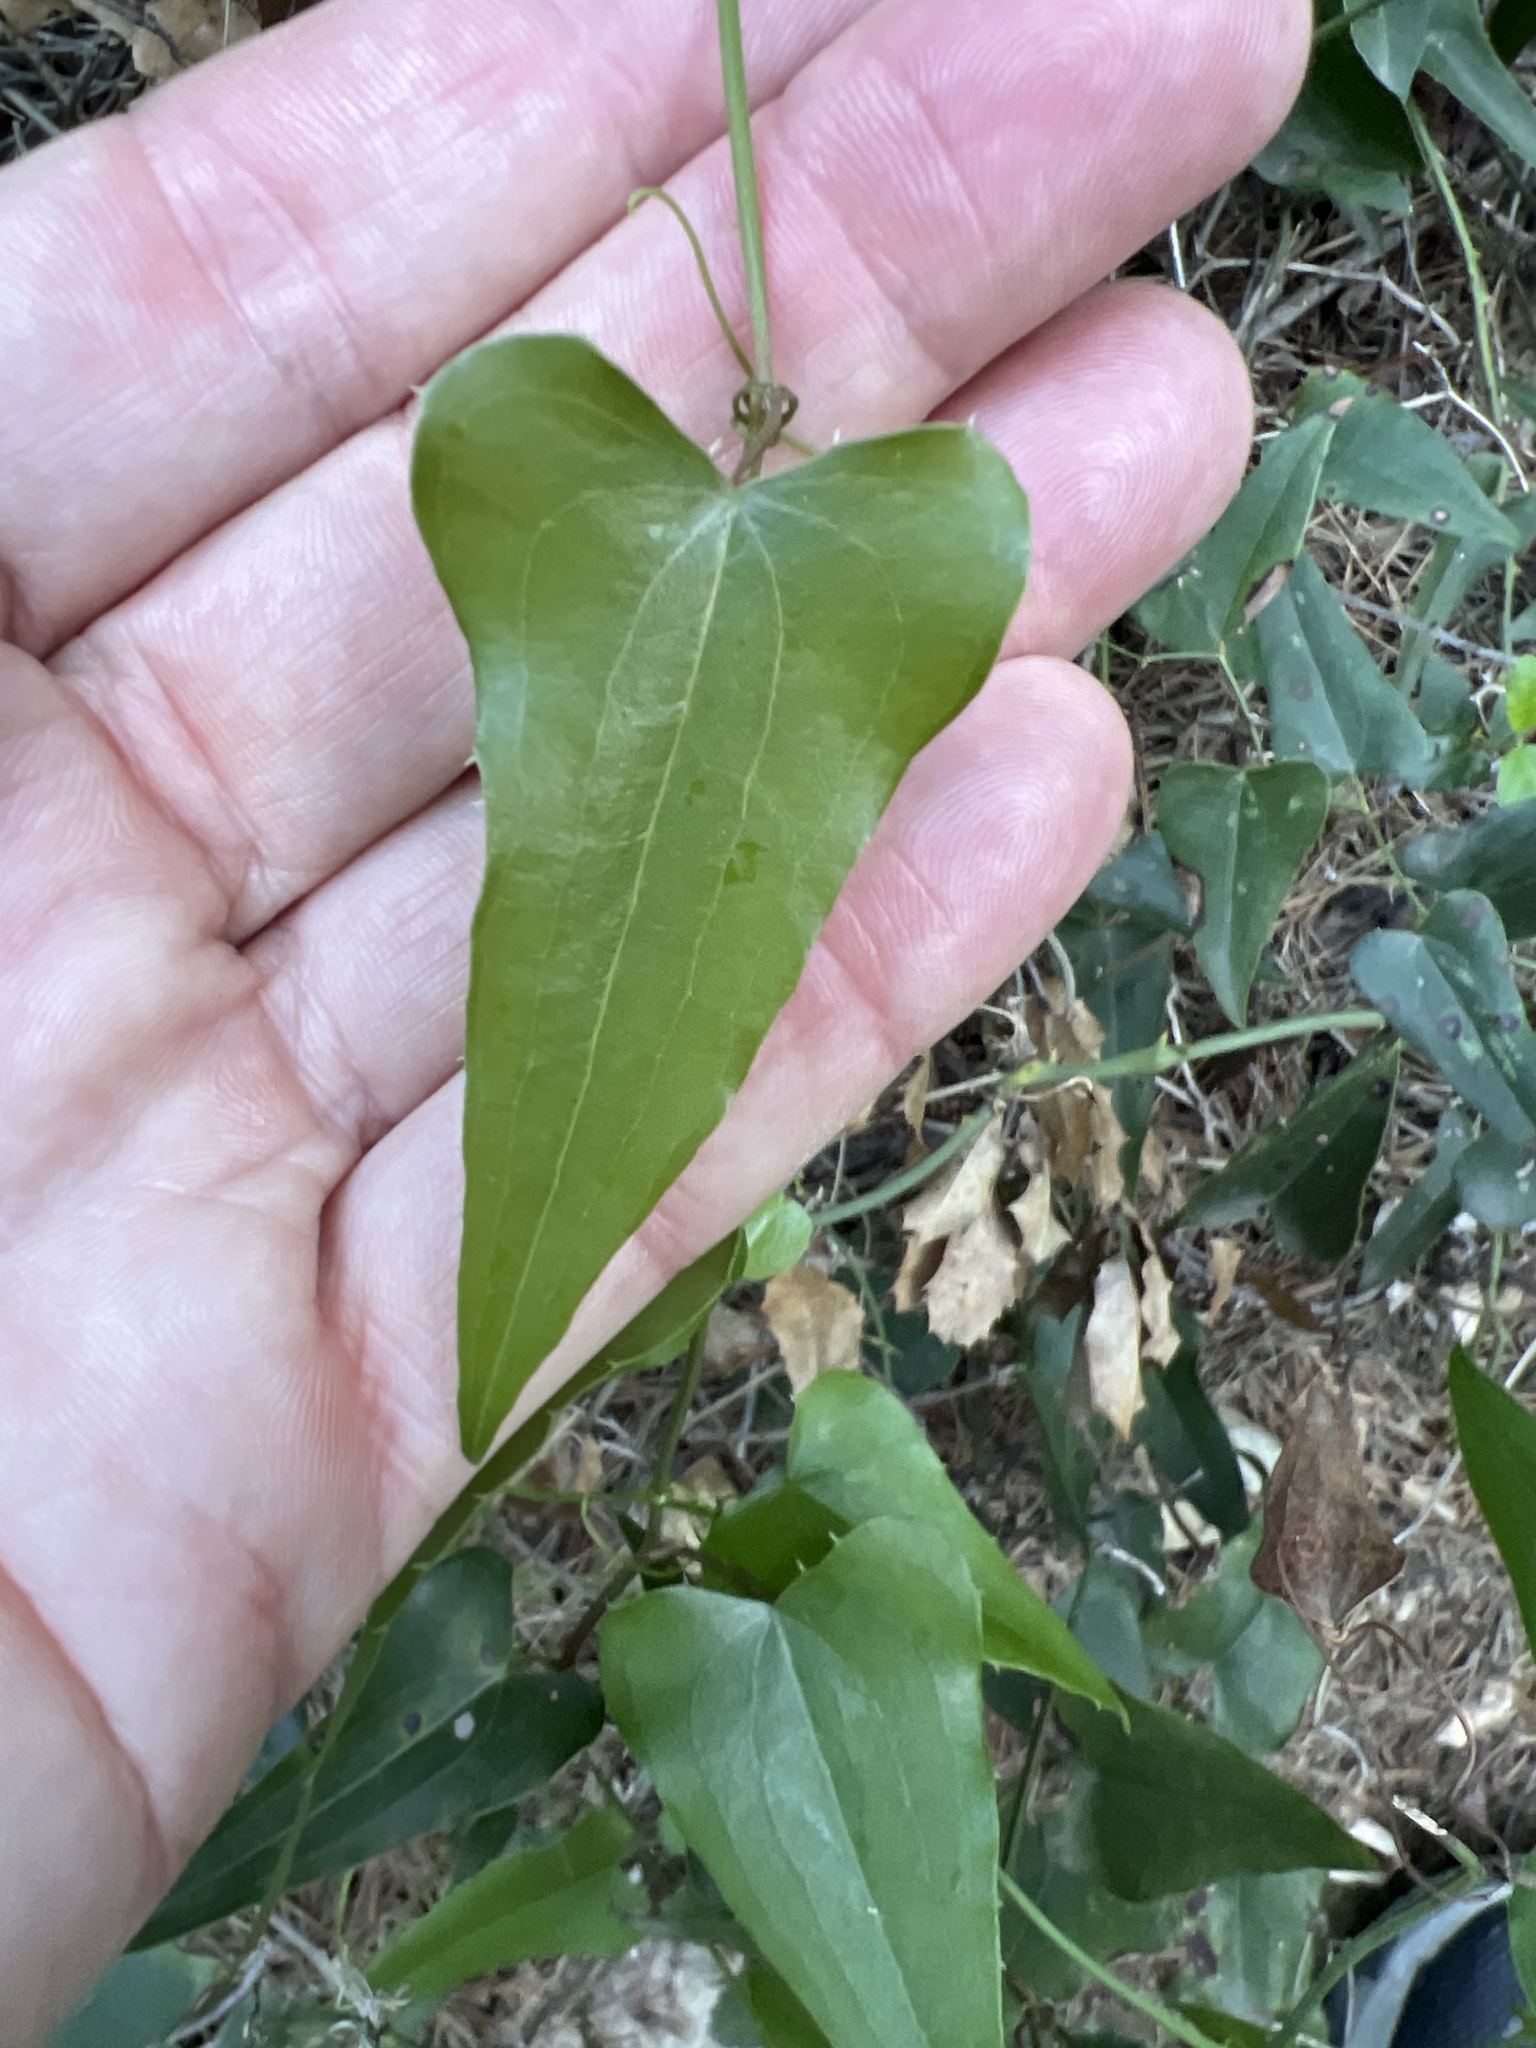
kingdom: Plantae
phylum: Tracheophyta
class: Liliopsida
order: Liliales
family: Smilacaceae
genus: Smilax
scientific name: Smilax aspera
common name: Common smilax
